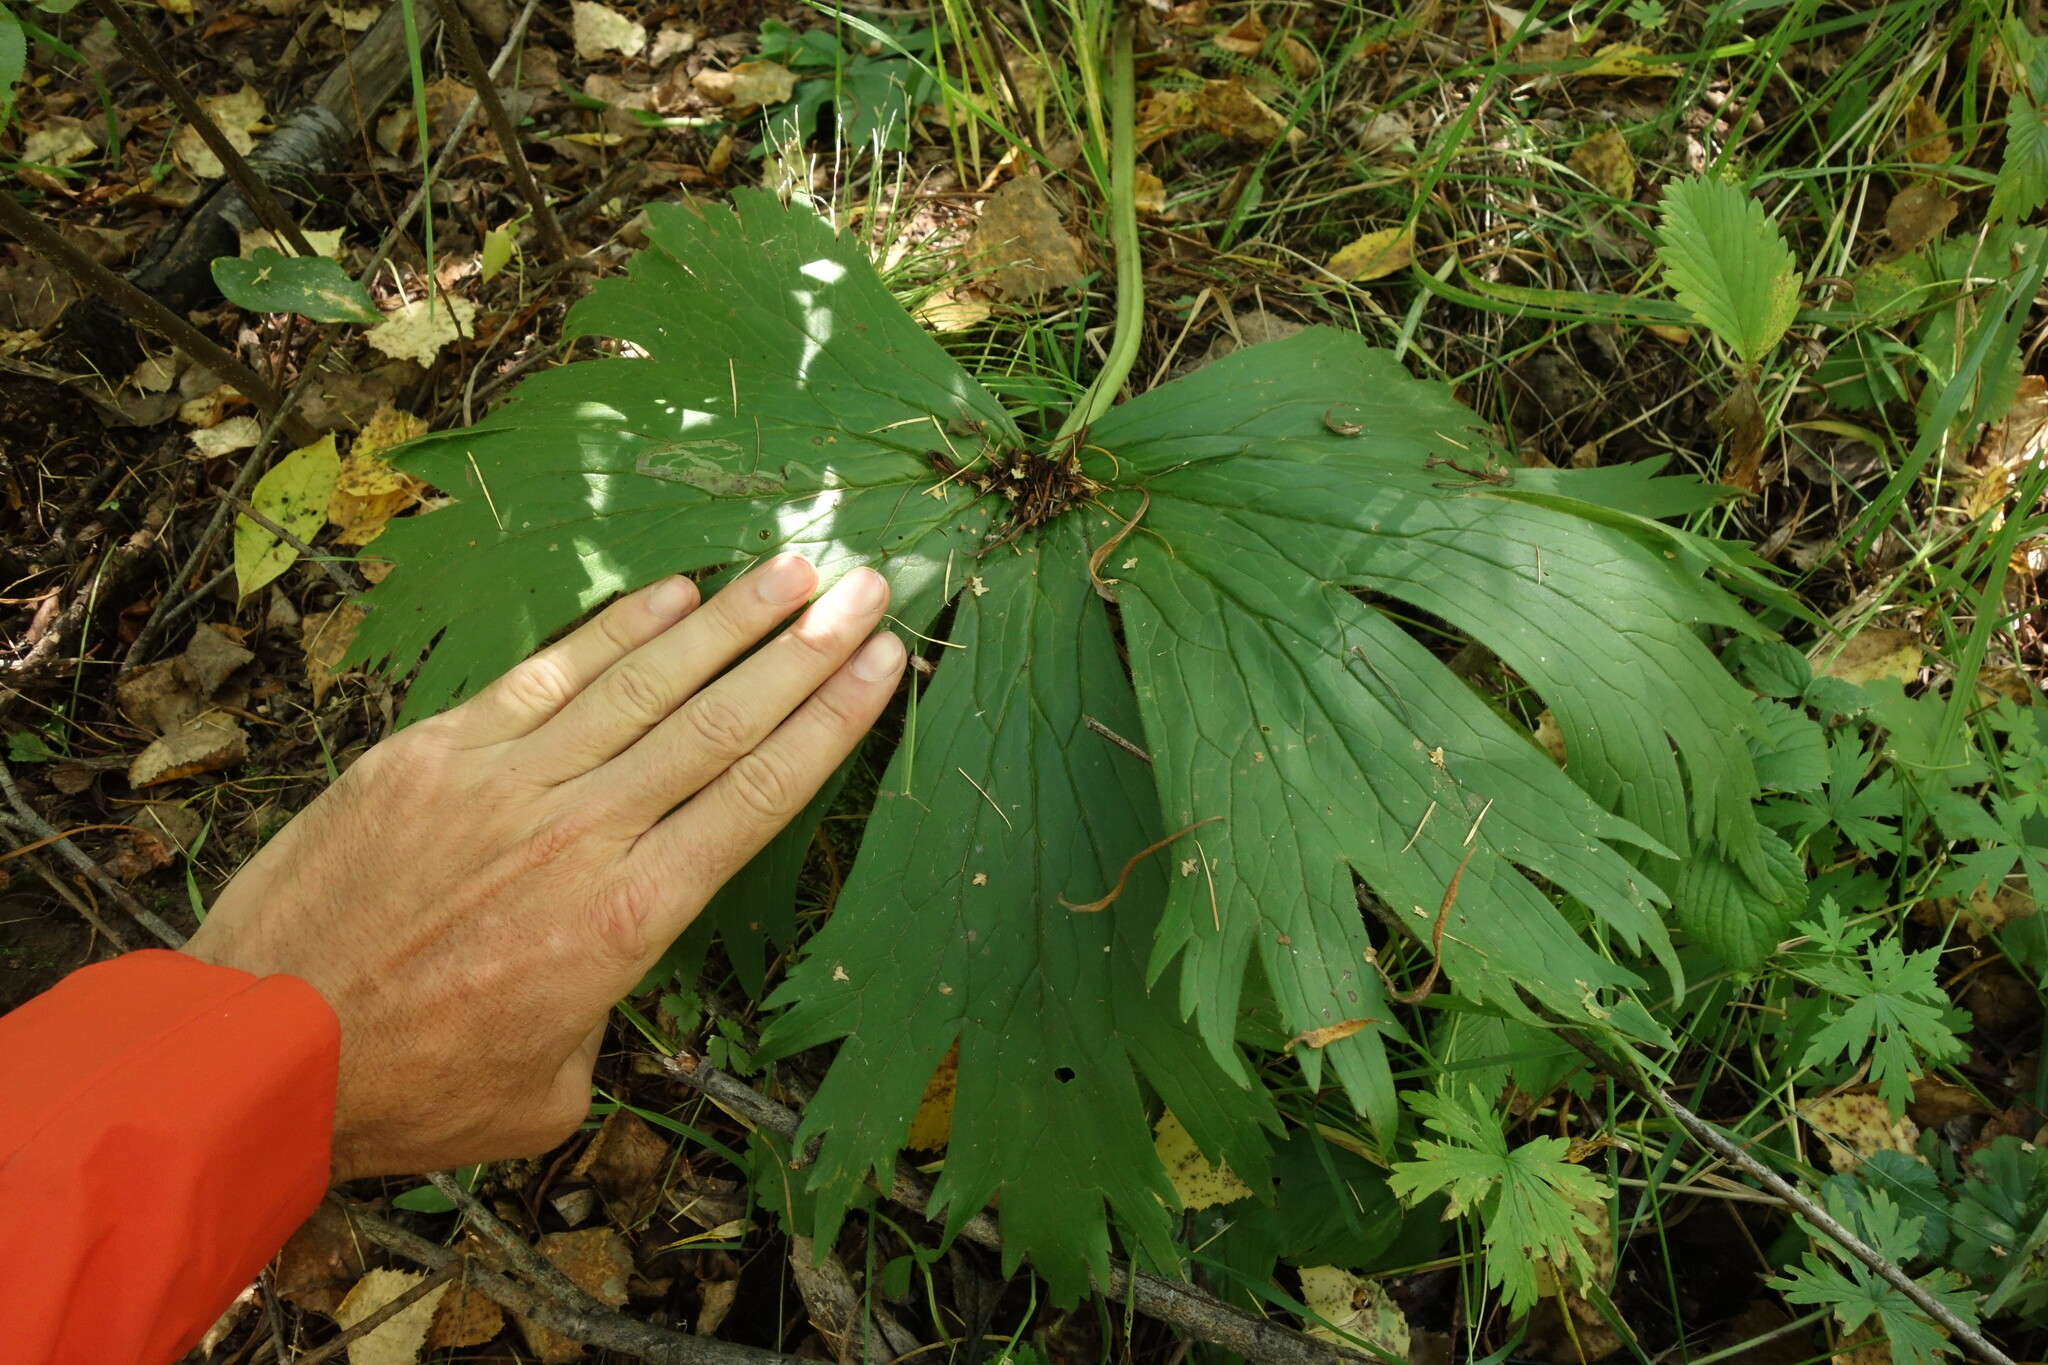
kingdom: Plantae
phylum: Tracheophyta
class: Magnoliopsida
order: Ranunculales
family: Ranunculaceae
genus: Aconitum
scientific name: Aconitum septentrionale
